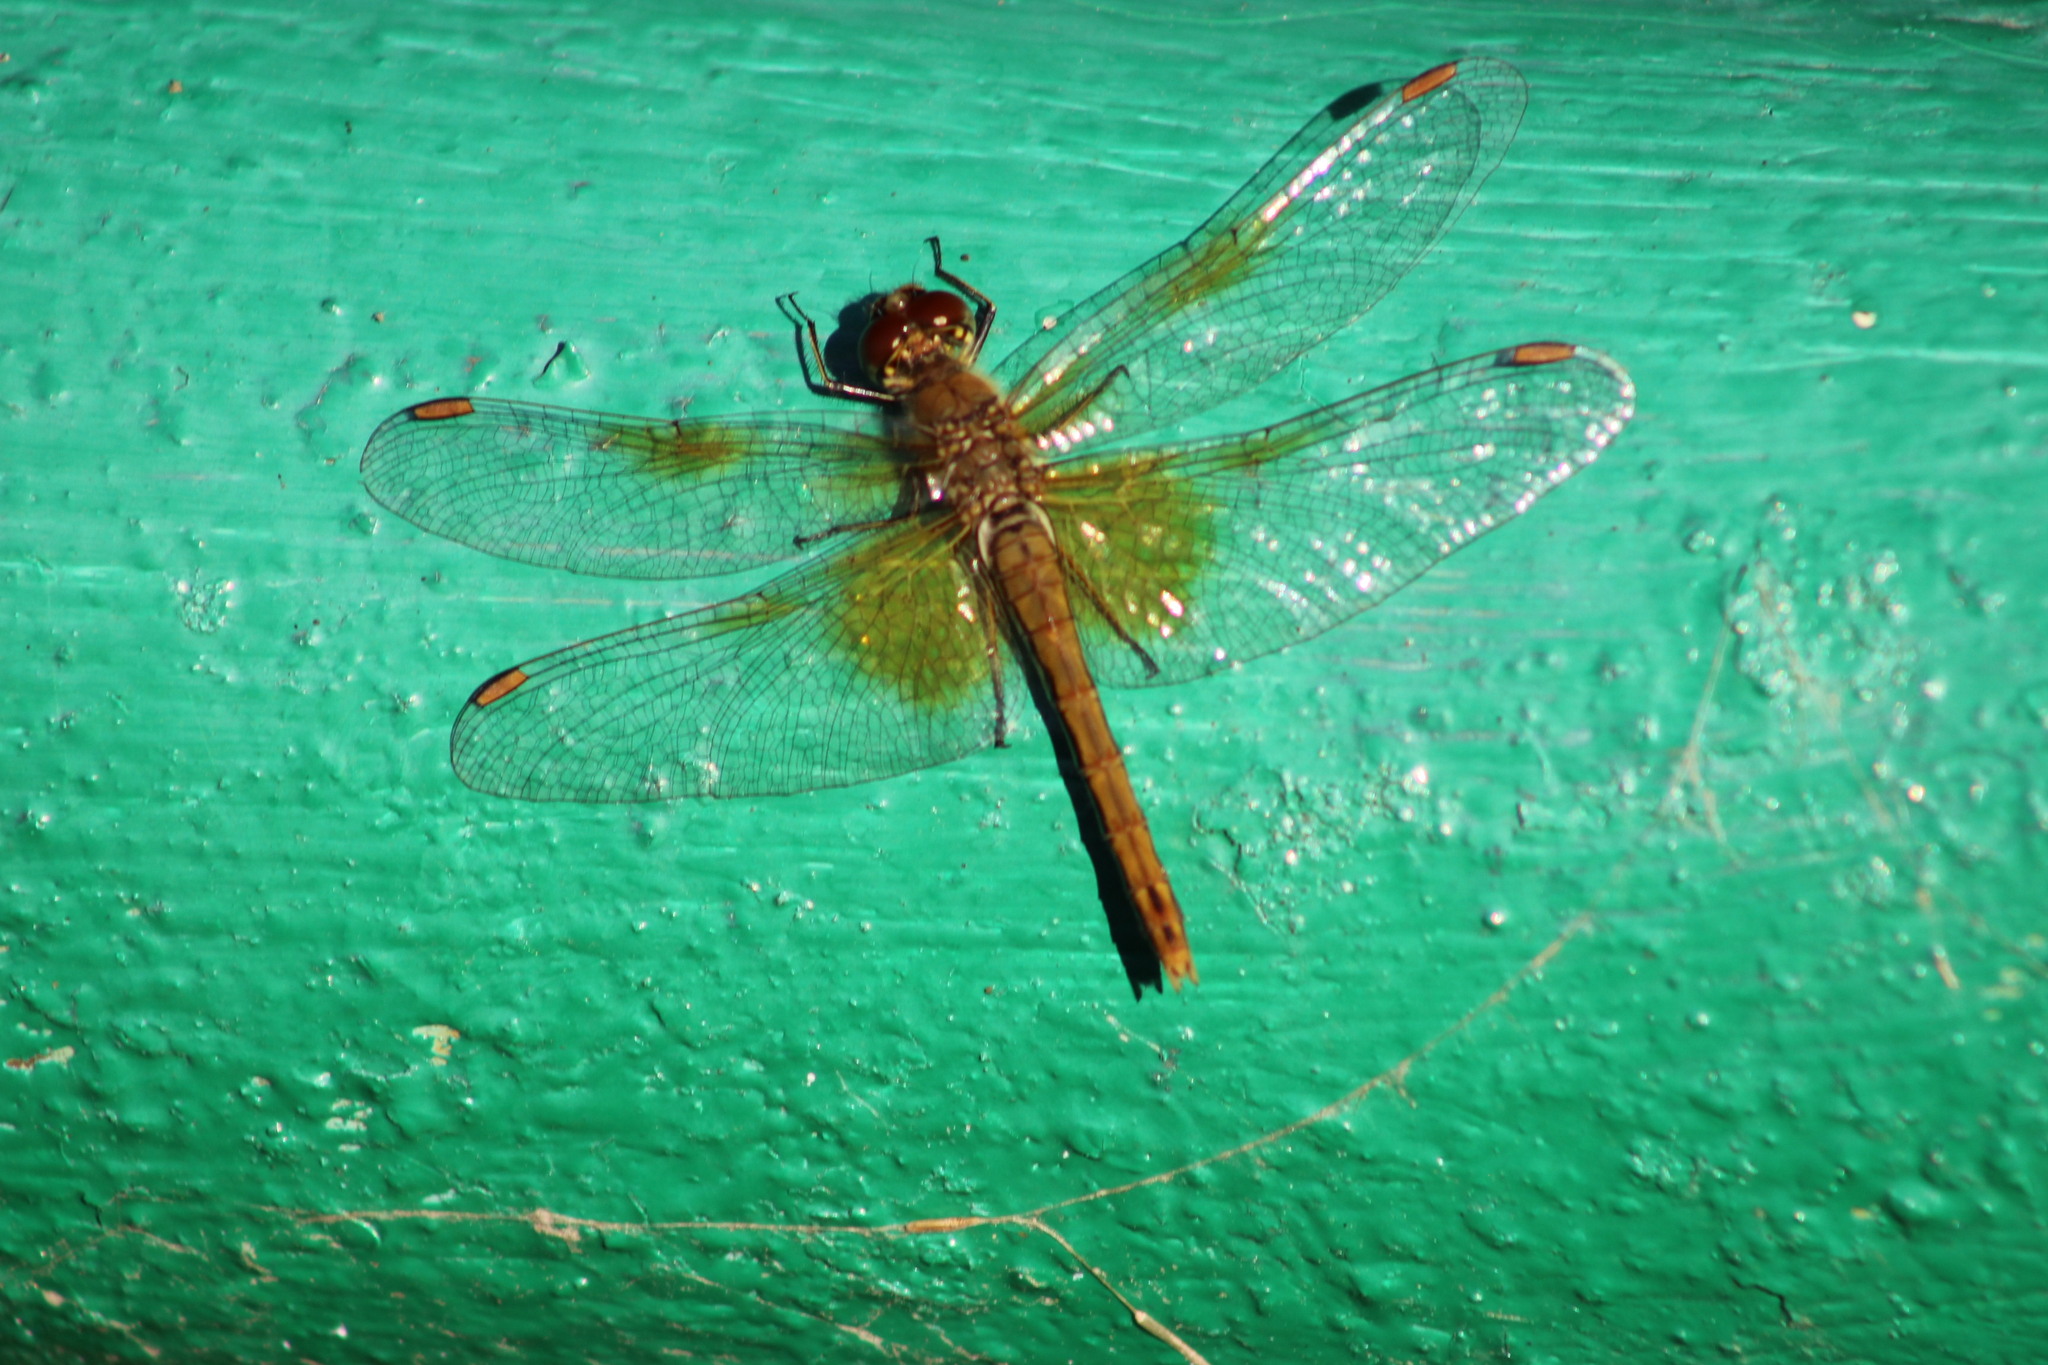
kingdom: Animalia
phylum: Arthropoda
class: Insecta
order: Odonata
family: Libellulidae
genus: Sympetrum
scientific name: Sympetrum flaveolum
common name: Yellow-winged darter
